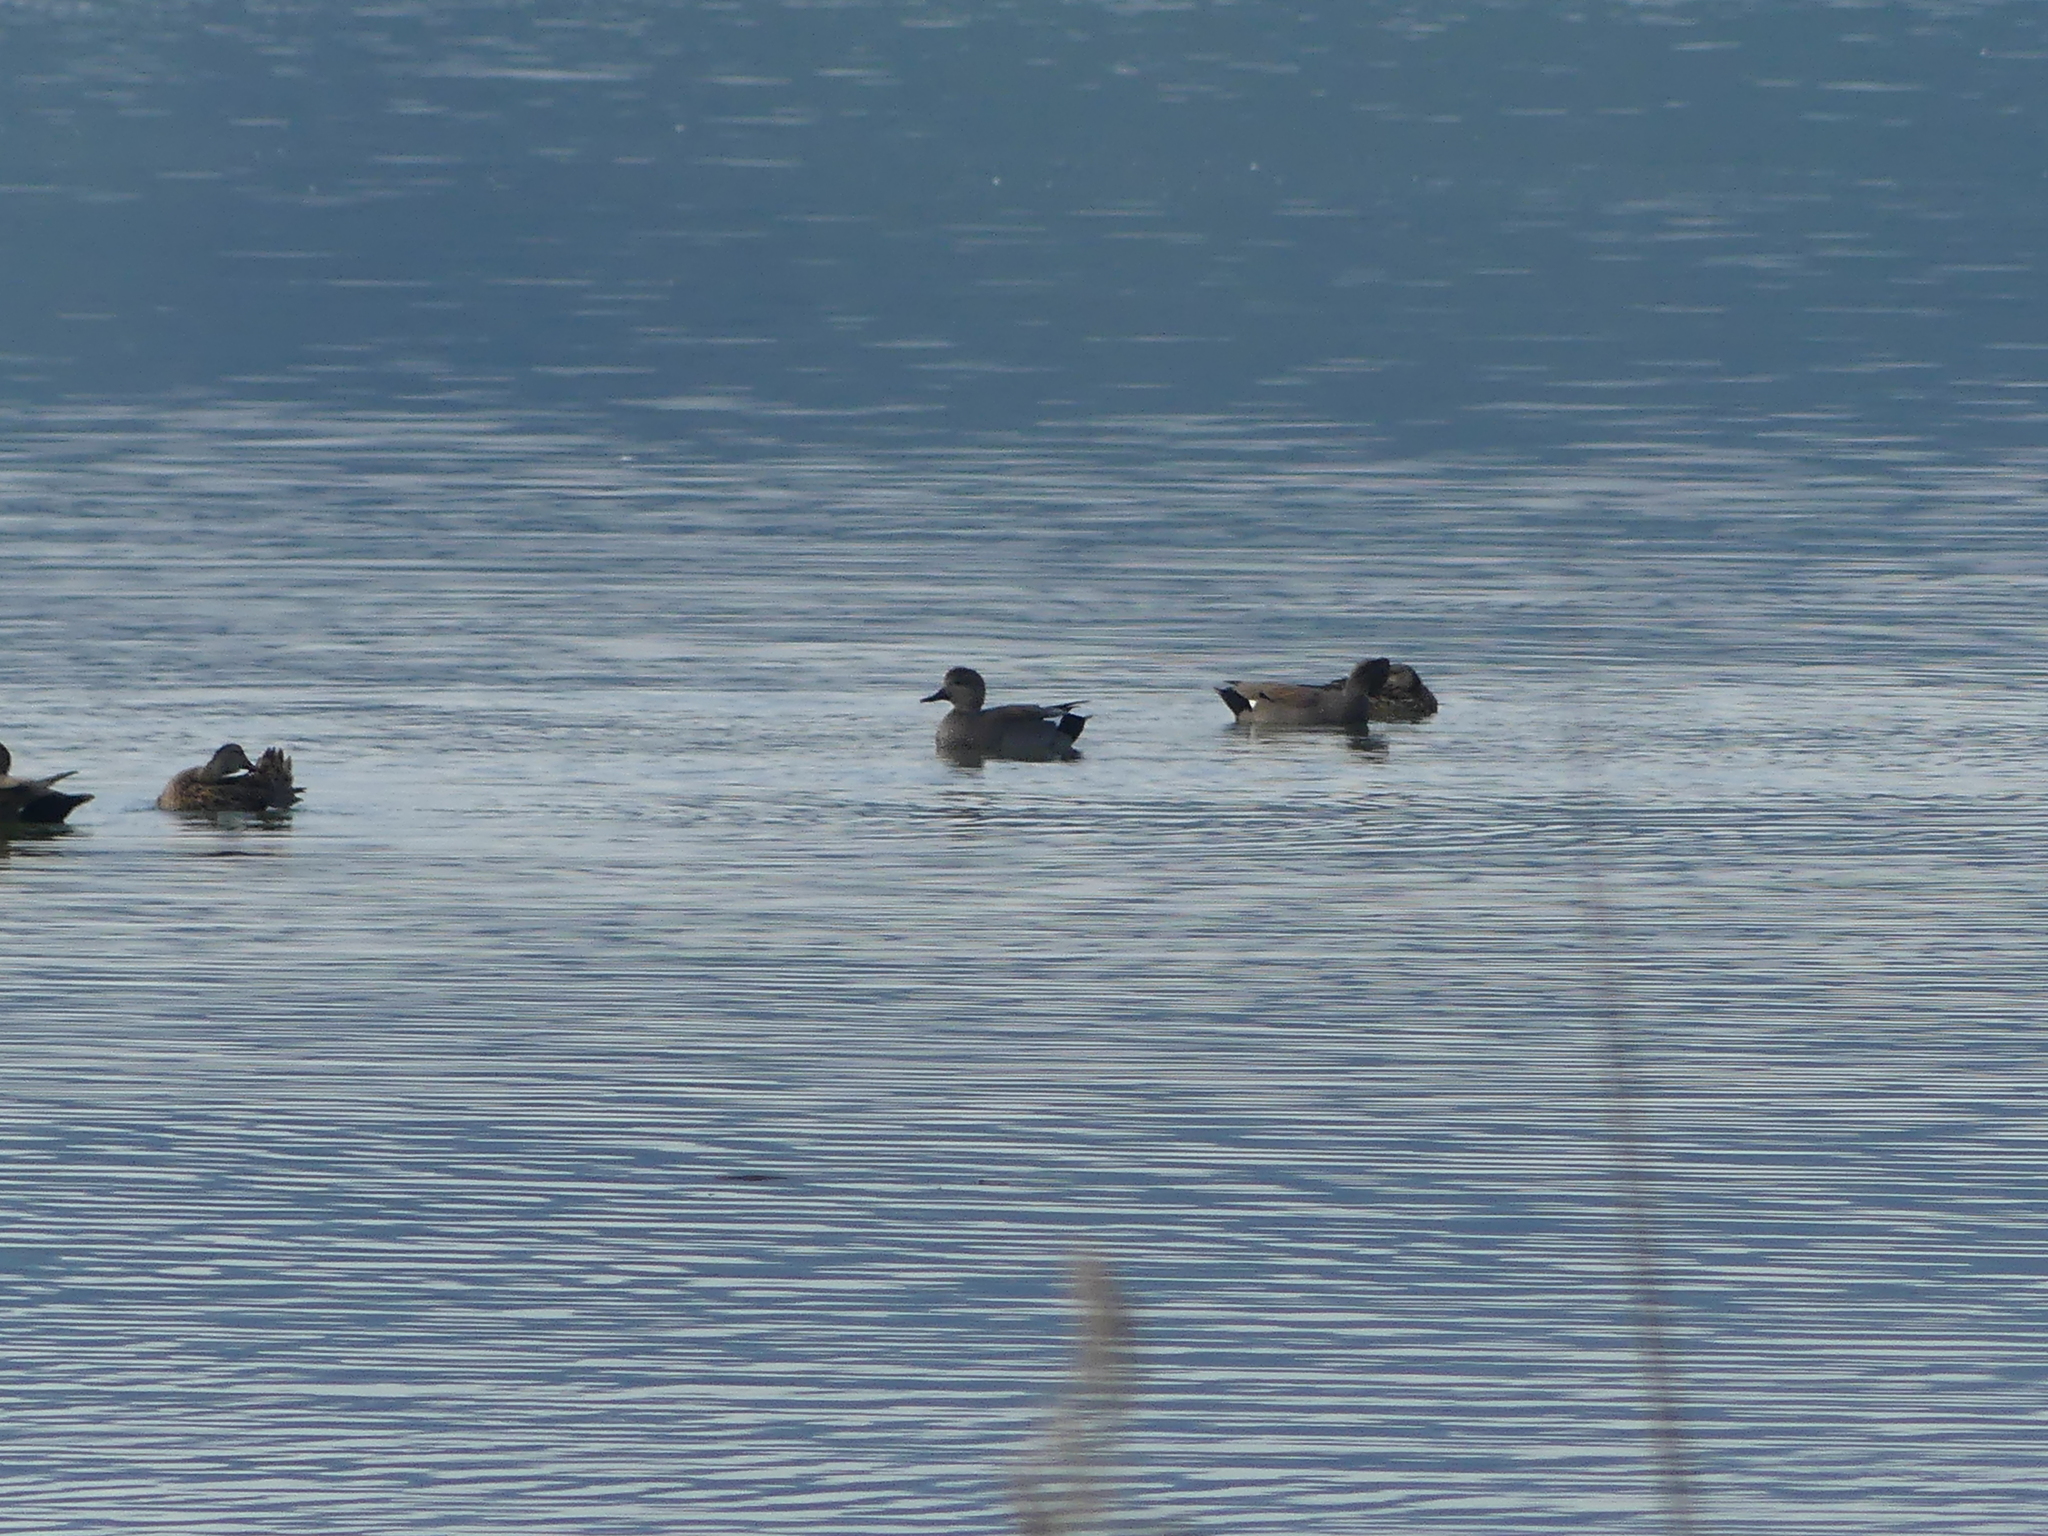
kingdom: Animalia
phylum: Chordata
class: Aves
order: Anseriformes
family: Anatidae
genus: Mareca
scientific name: Mareca strepera
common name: Gadwall
